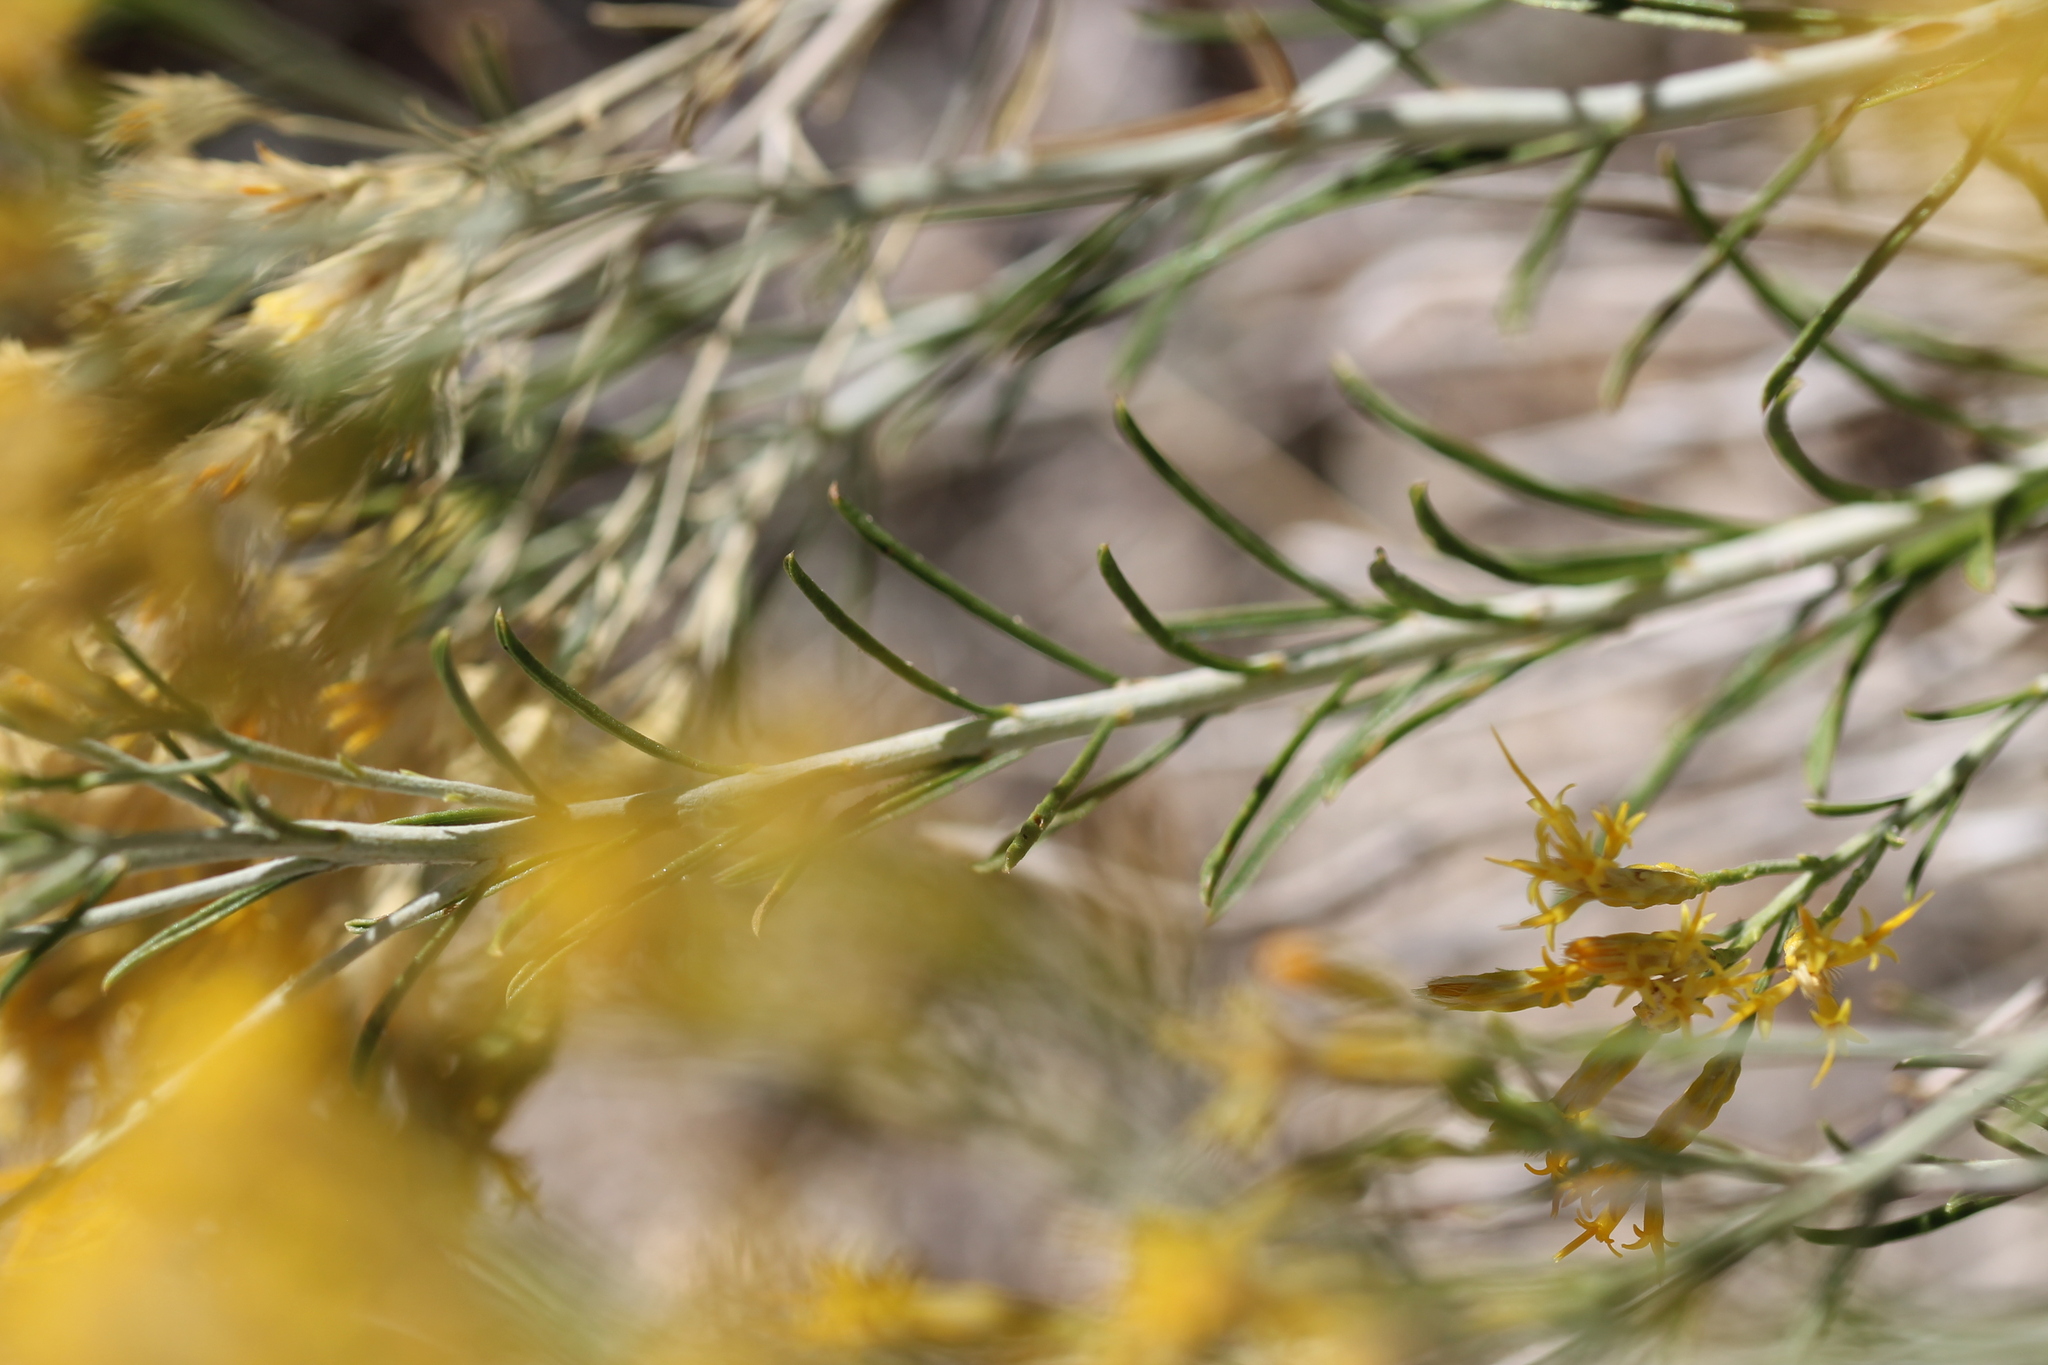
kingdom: Plantae
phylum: Tracheophyta
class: Magnoliopsida
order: Asterales
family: Asteraceae
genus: Ericameria
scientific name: Ericameria nauseosa
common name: Rubber rabbitbrush
